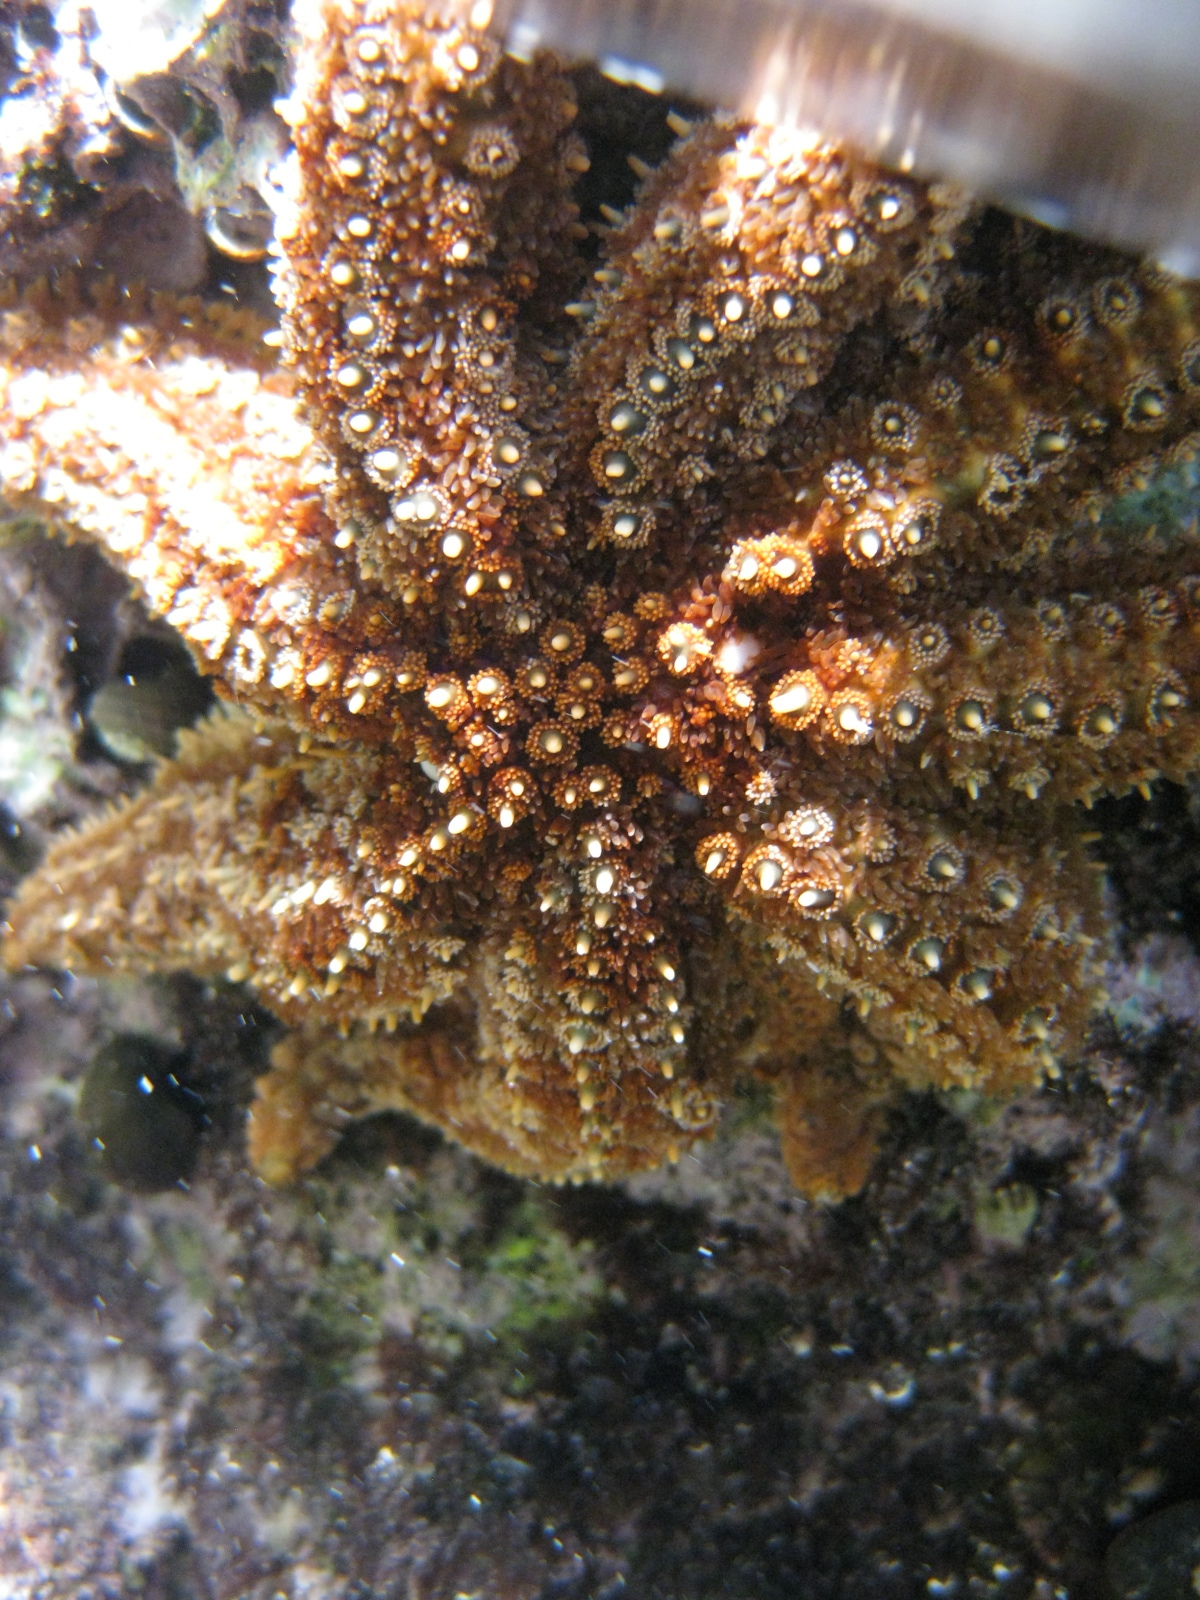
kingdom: Animalia
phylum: Echinodermata
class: Asteroidea
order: Forcipulatida
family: Asteriidae
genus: Coscinasterias
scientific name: Coscinasterias muricata
